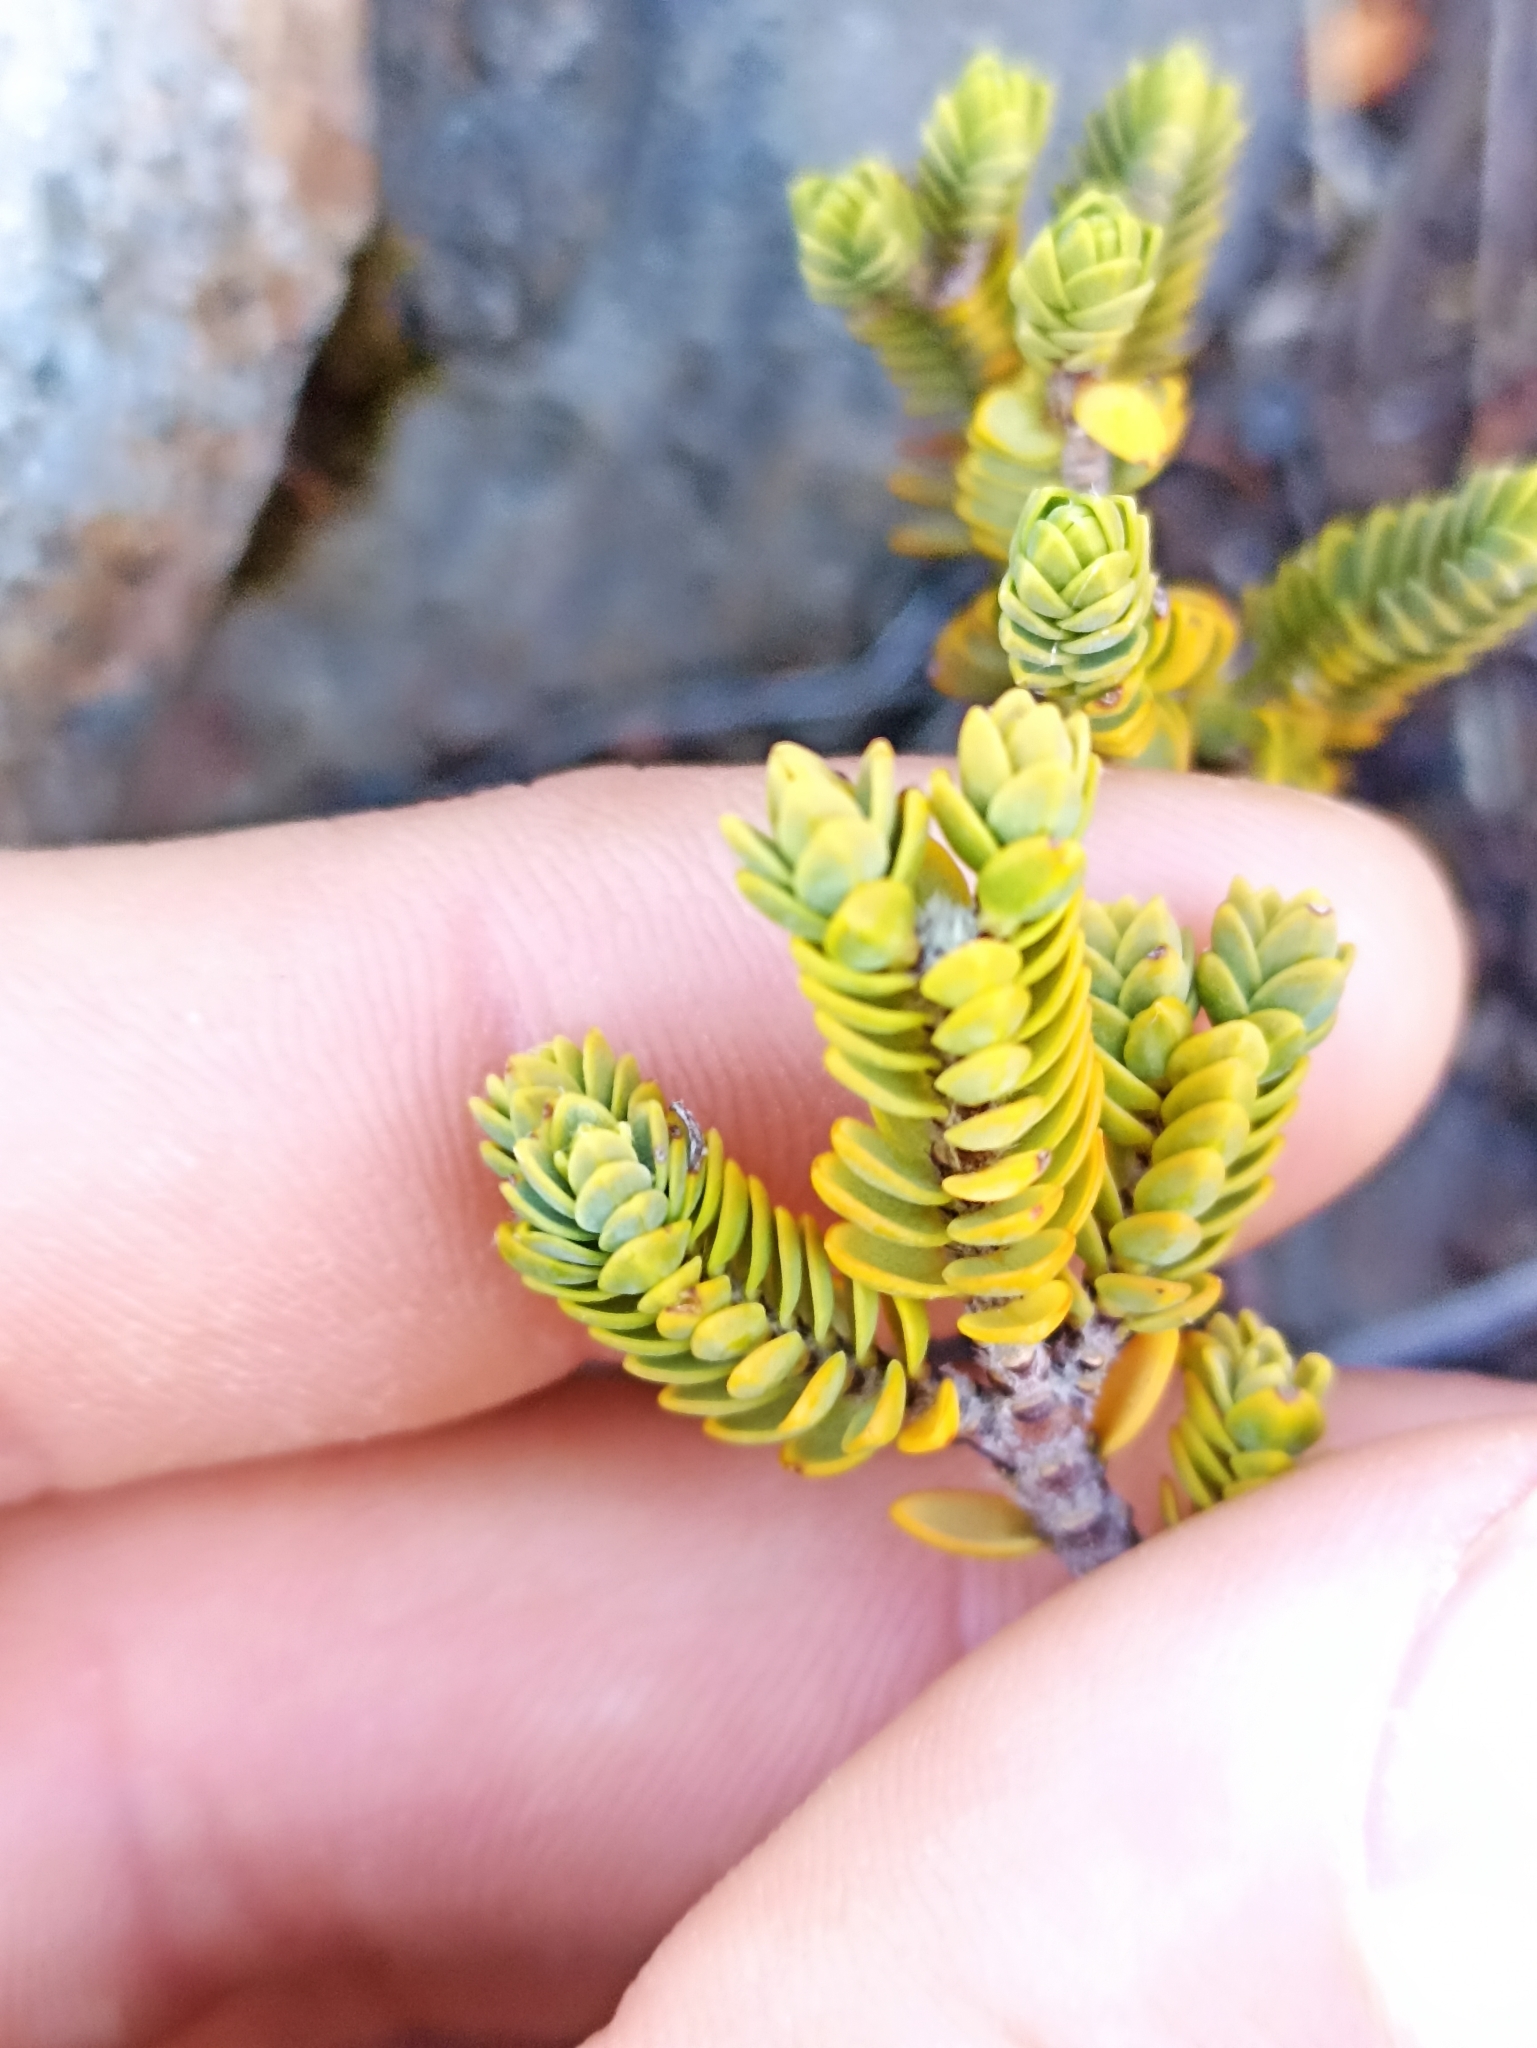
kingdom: Plantae
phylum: Tracheophyta
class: Magnoliopsida
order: Malvales
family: Thymelaeaceae
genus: Pimelea
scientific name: Pimelea microphylla
